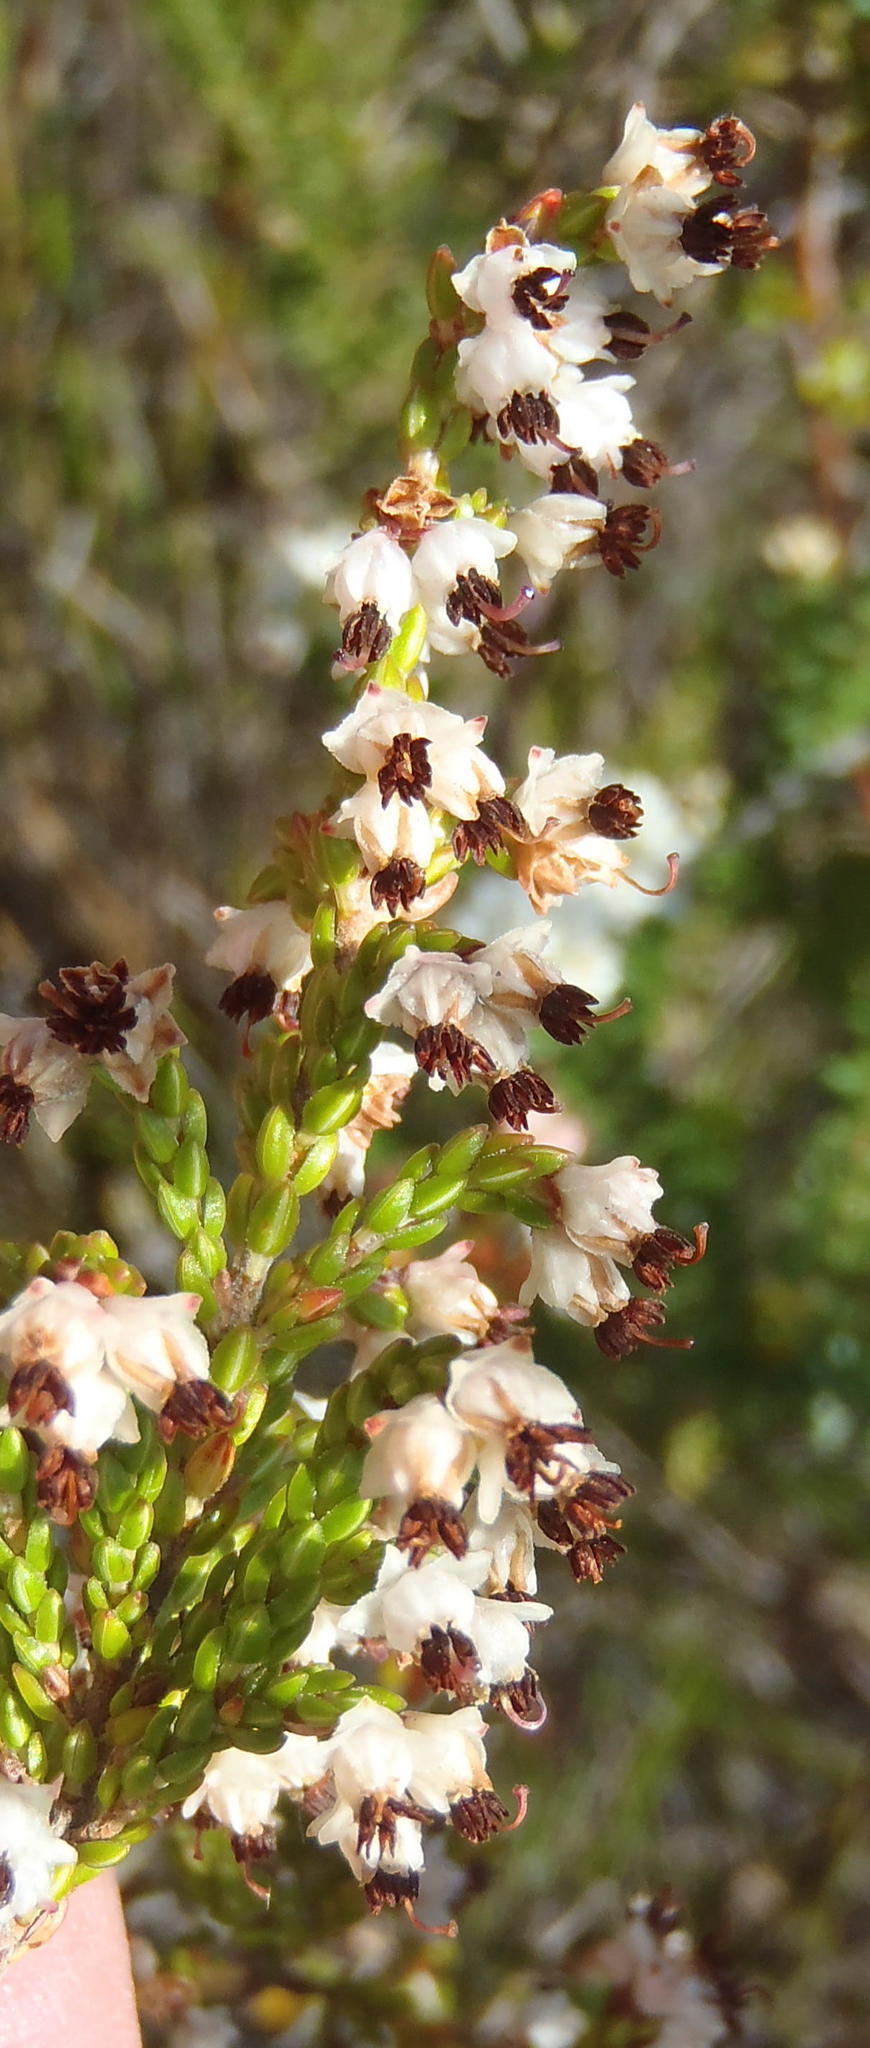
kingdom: Plantae
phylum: Tracheophyta
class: Magnoliopsida
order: Ericales
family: Ericaceae
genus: Erica
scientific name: Erica triceps
